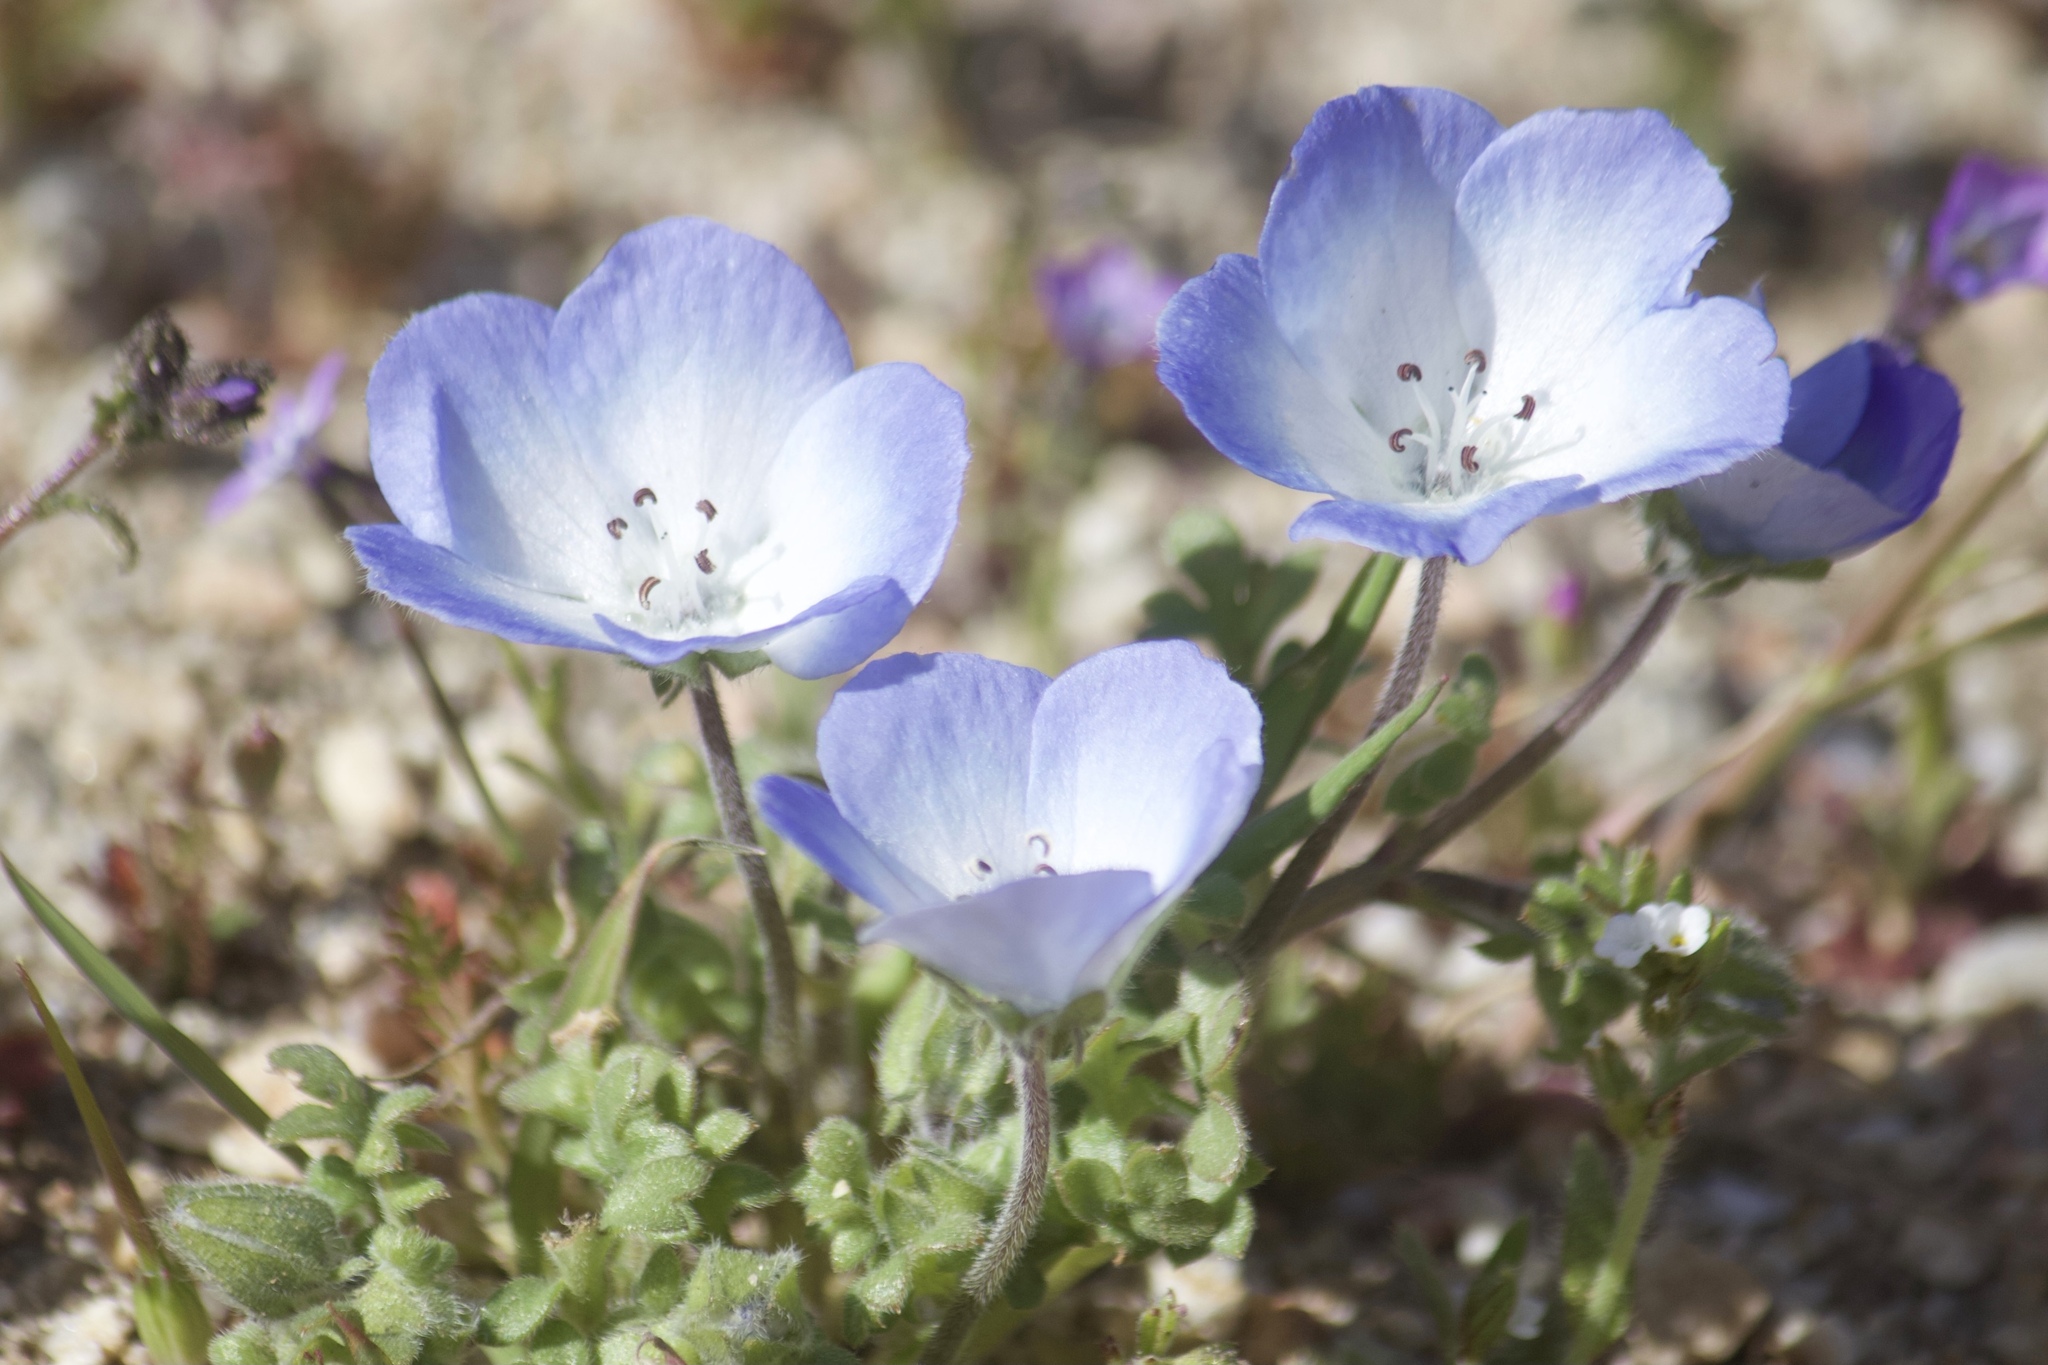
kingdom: Plantae
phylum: Tracheophyta
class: Magnoliopsida
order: Boraginales
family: Hydrophyllaceae
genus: Nemophila
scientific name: Nemophila menziesii
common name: Baby's-blue-eyes
